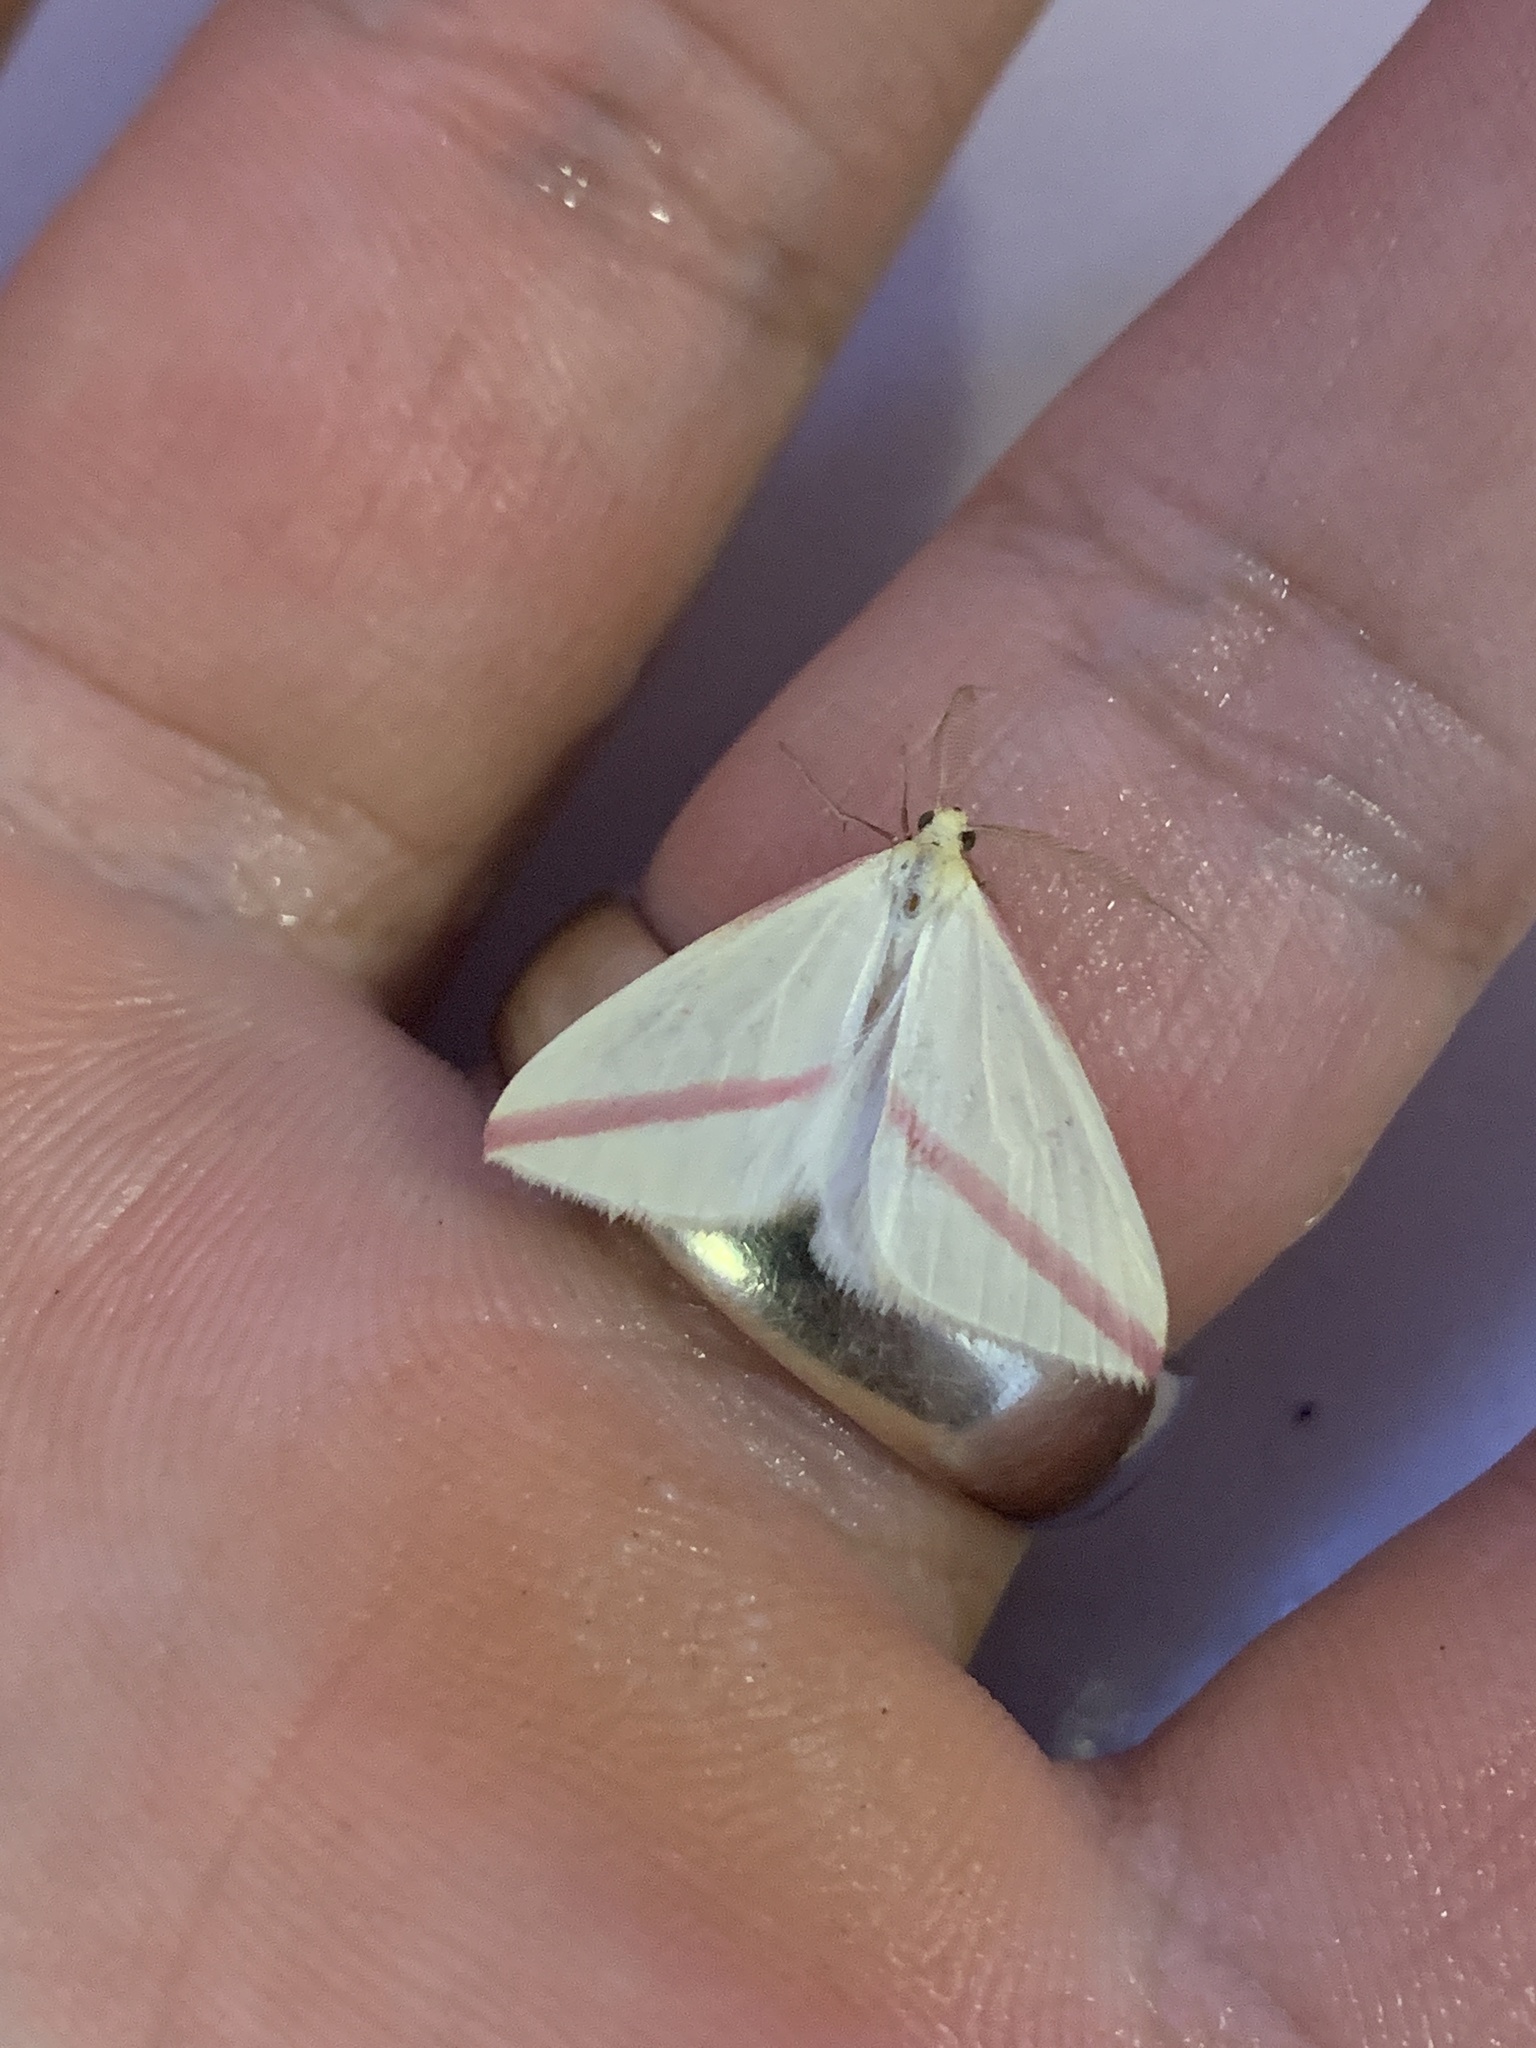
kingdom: Animalia
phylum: Arthropoda
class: Insecta
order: Lepidoptera
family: Geometridae
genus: Rhodometra
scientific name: Rhodometra sacraria
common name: Vestal
